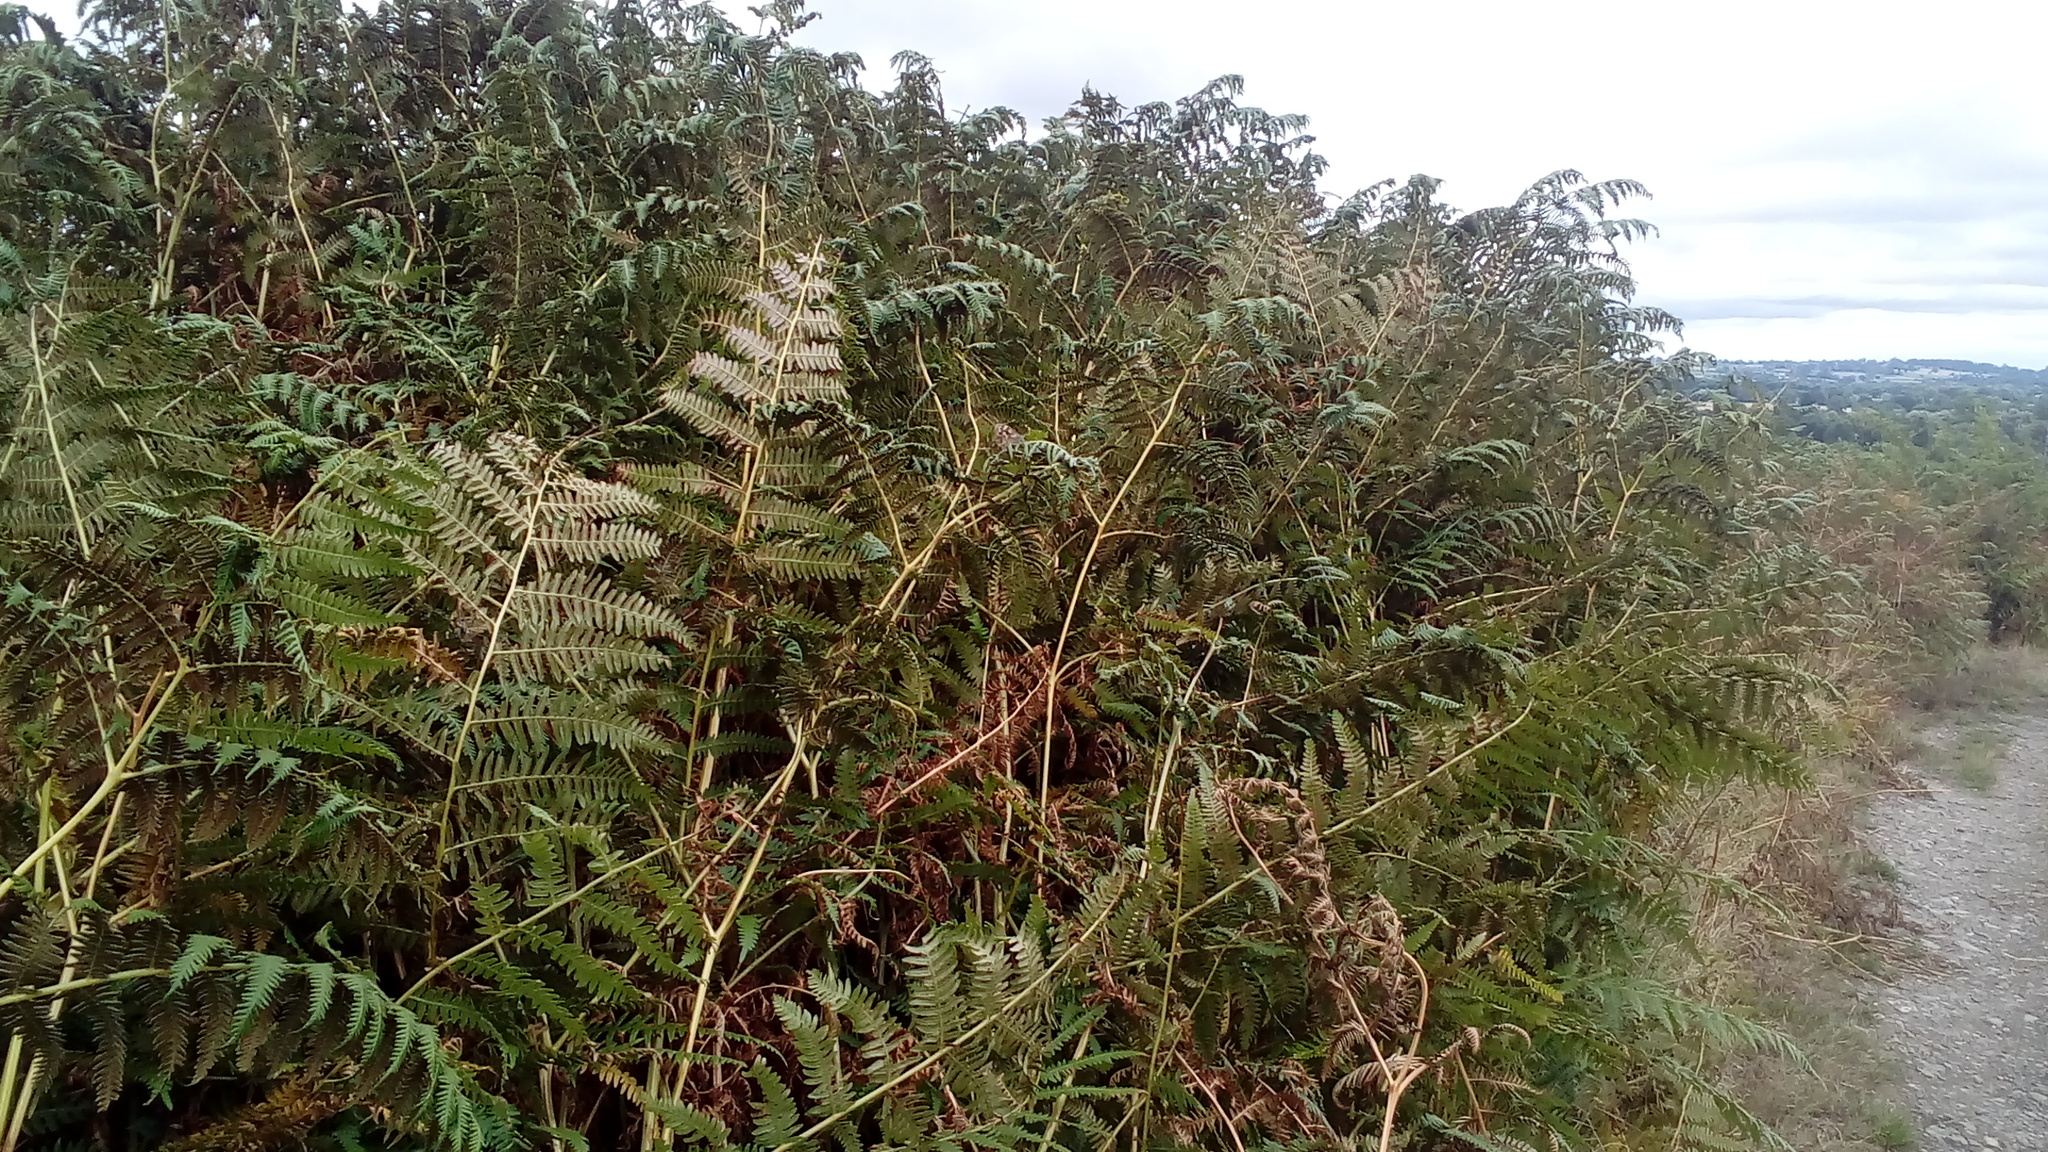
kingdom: Plantae
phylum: Tracheophyta
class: Polypodiopsida
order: Polypodiales
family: Dennstaedtiaceae
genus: Pteridium
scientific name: Pteridium aquilinum
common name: Bracken
